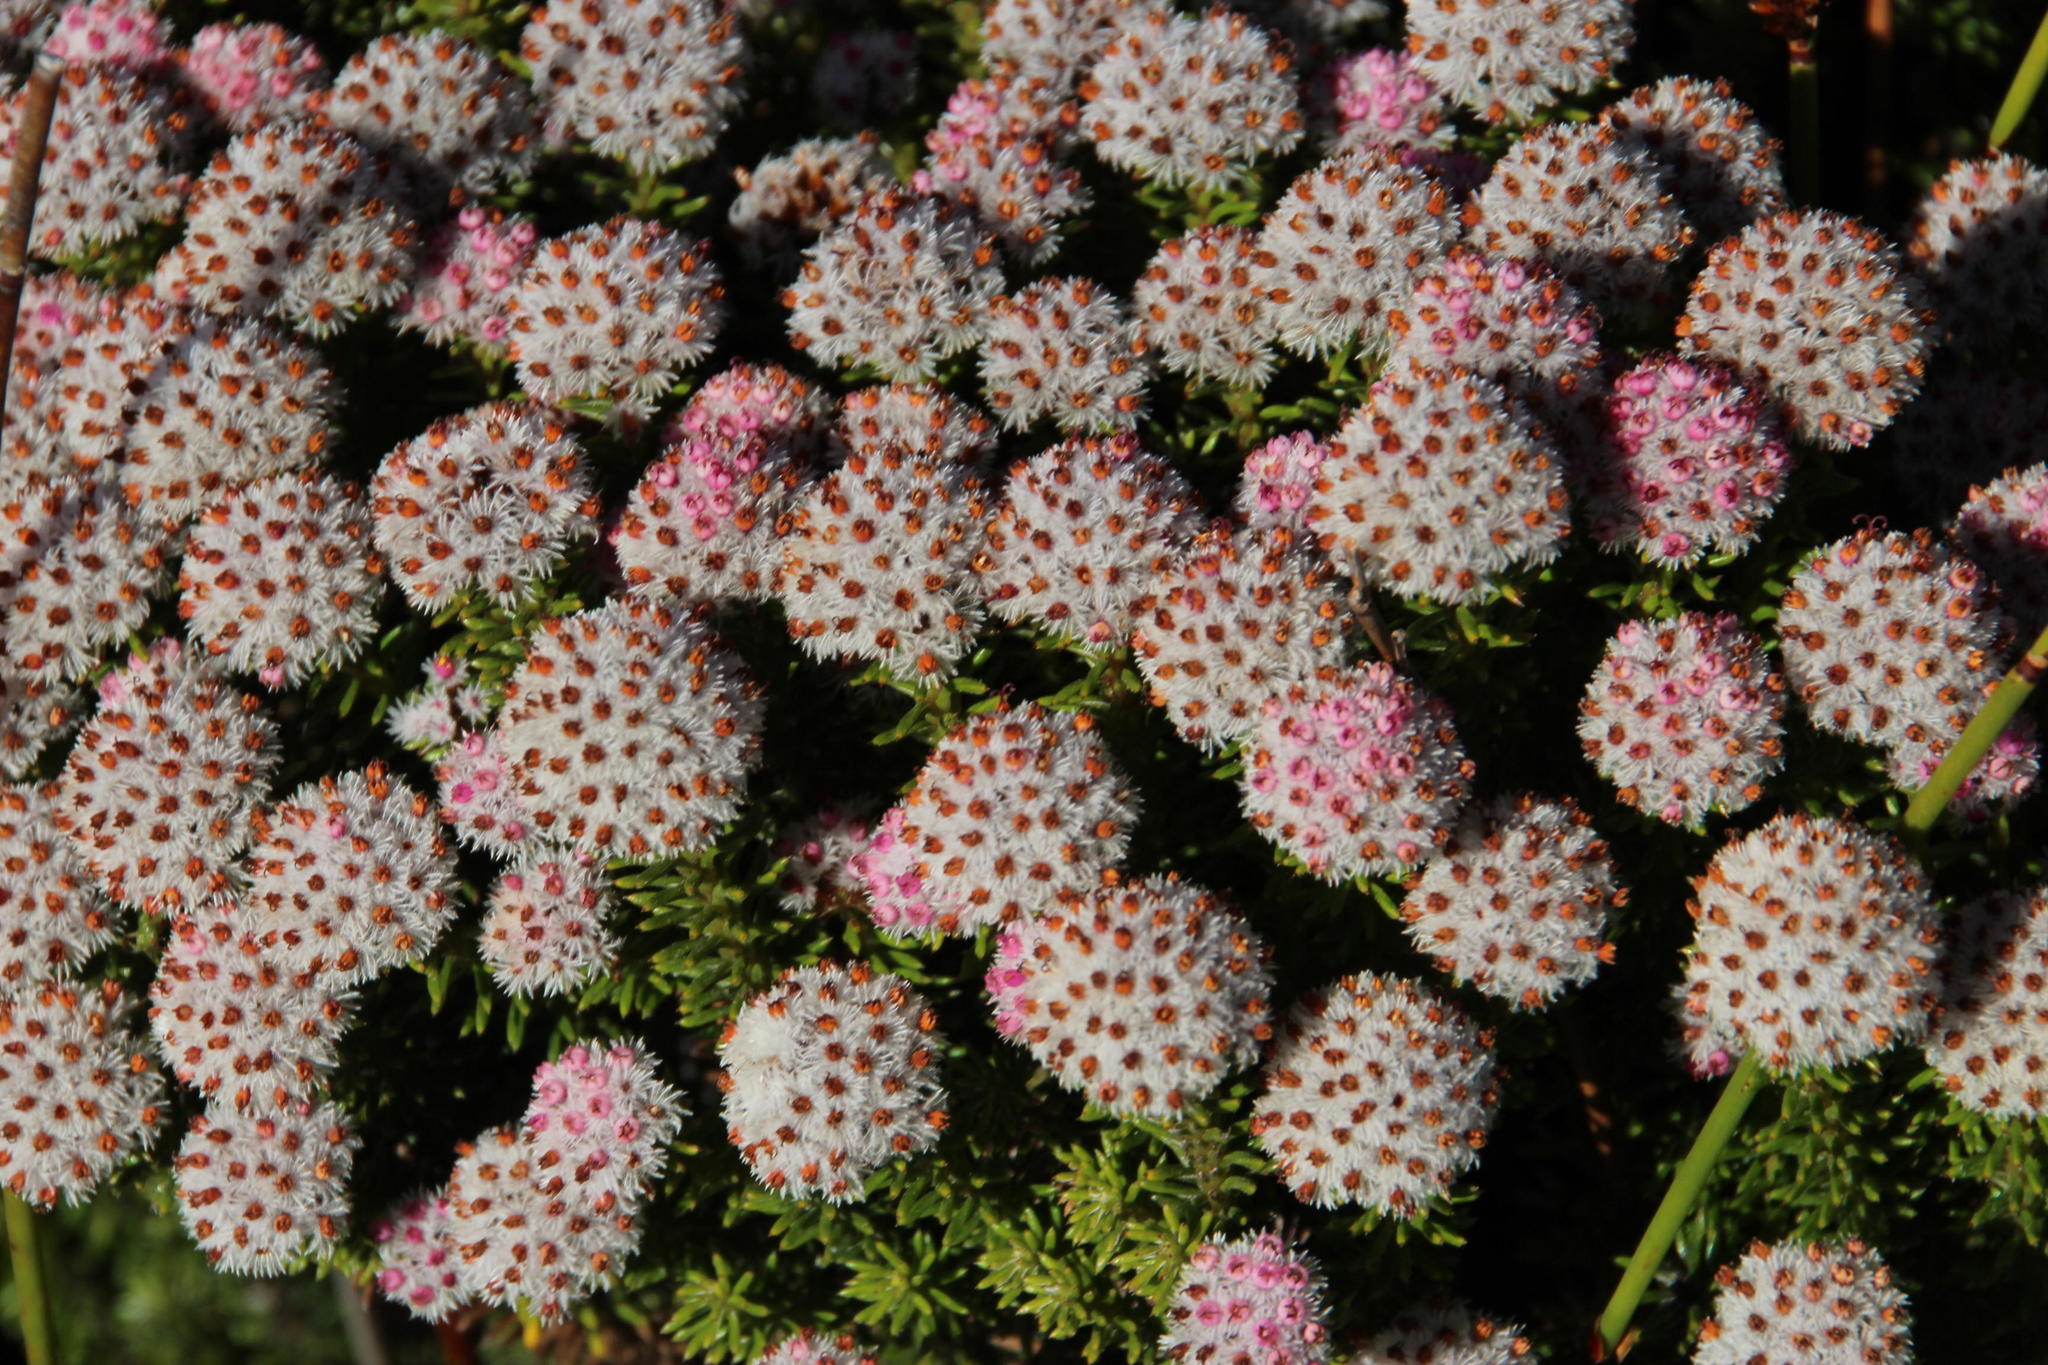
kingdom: Plantae
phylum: Tracheophyta
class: Magnoliopsida
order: Asterales
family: Asteraceae
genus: Stoebe
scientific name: Stoebe rosea
